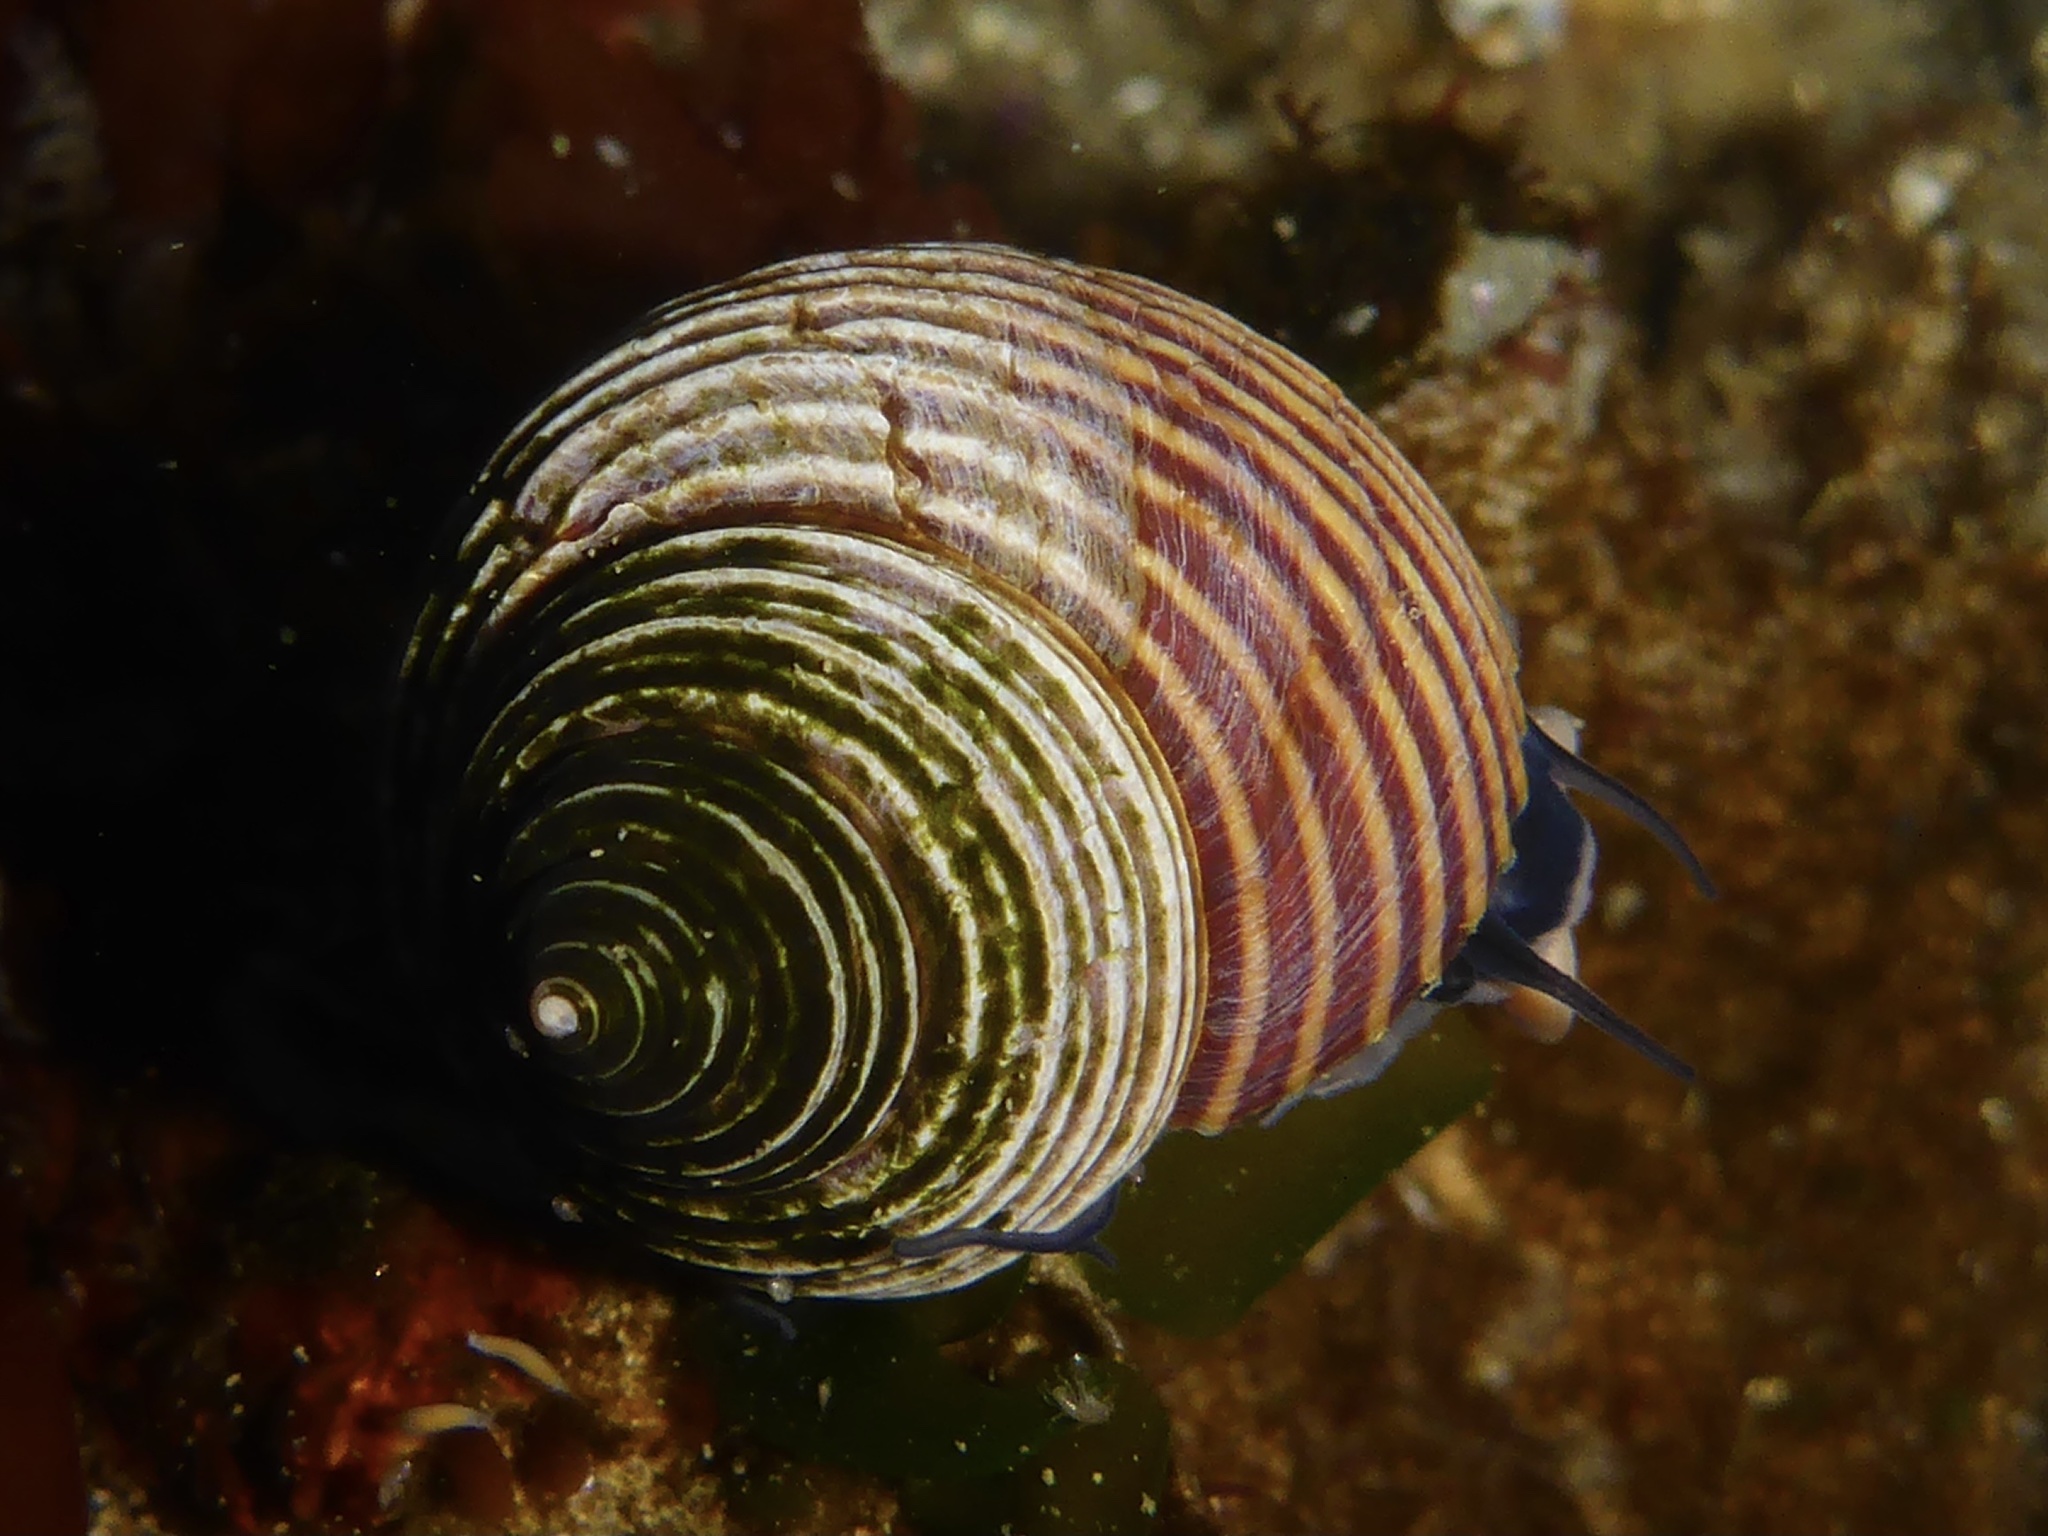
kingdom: Animalia
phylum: Mollusca
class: Gastropoda
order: Trochida
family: Calliostomatidae
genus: Calliostoma
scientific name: Calliostoma ligatum
